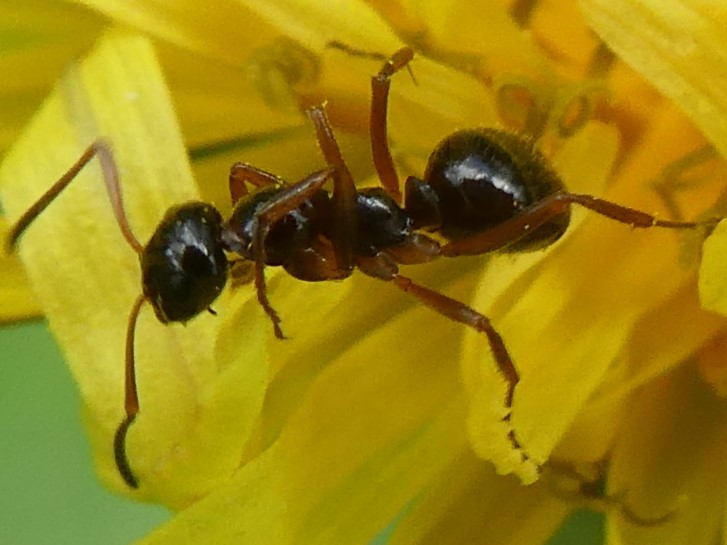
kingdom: Animalia
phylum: Arthropoda
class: Insecta
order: Hymenoptera
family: Formicidae
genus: Formica
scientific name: Formica neogagates
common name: New world black ant
